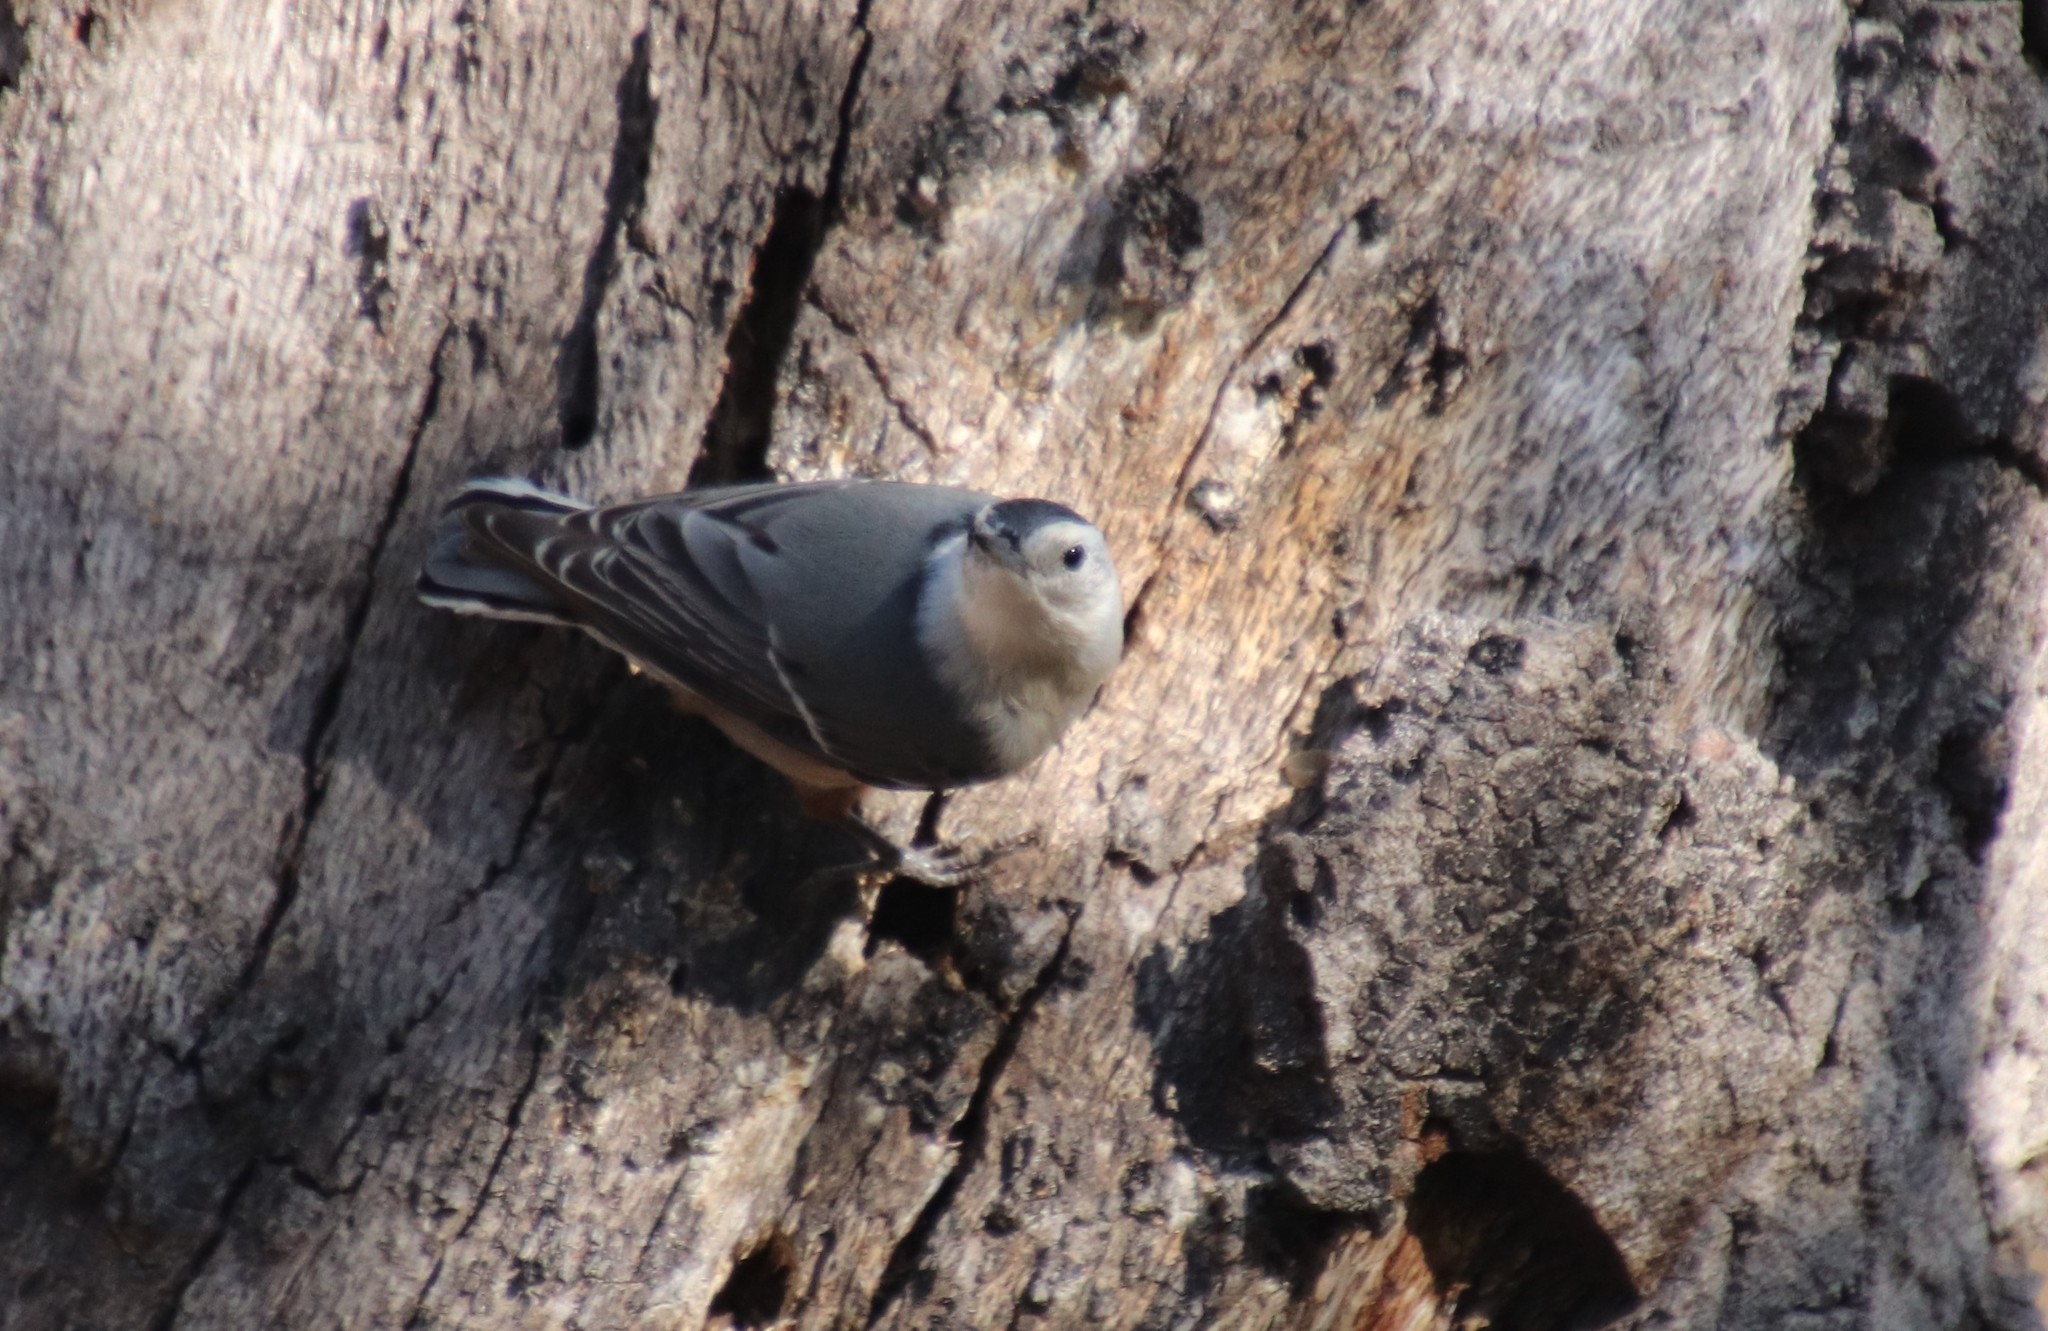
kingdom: Animalia
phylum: Chordata
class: Aves
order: Passeriformes
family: Sittidae
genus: Sitta
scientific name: Sitta carolinensis
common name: White-breasted nuthatch
